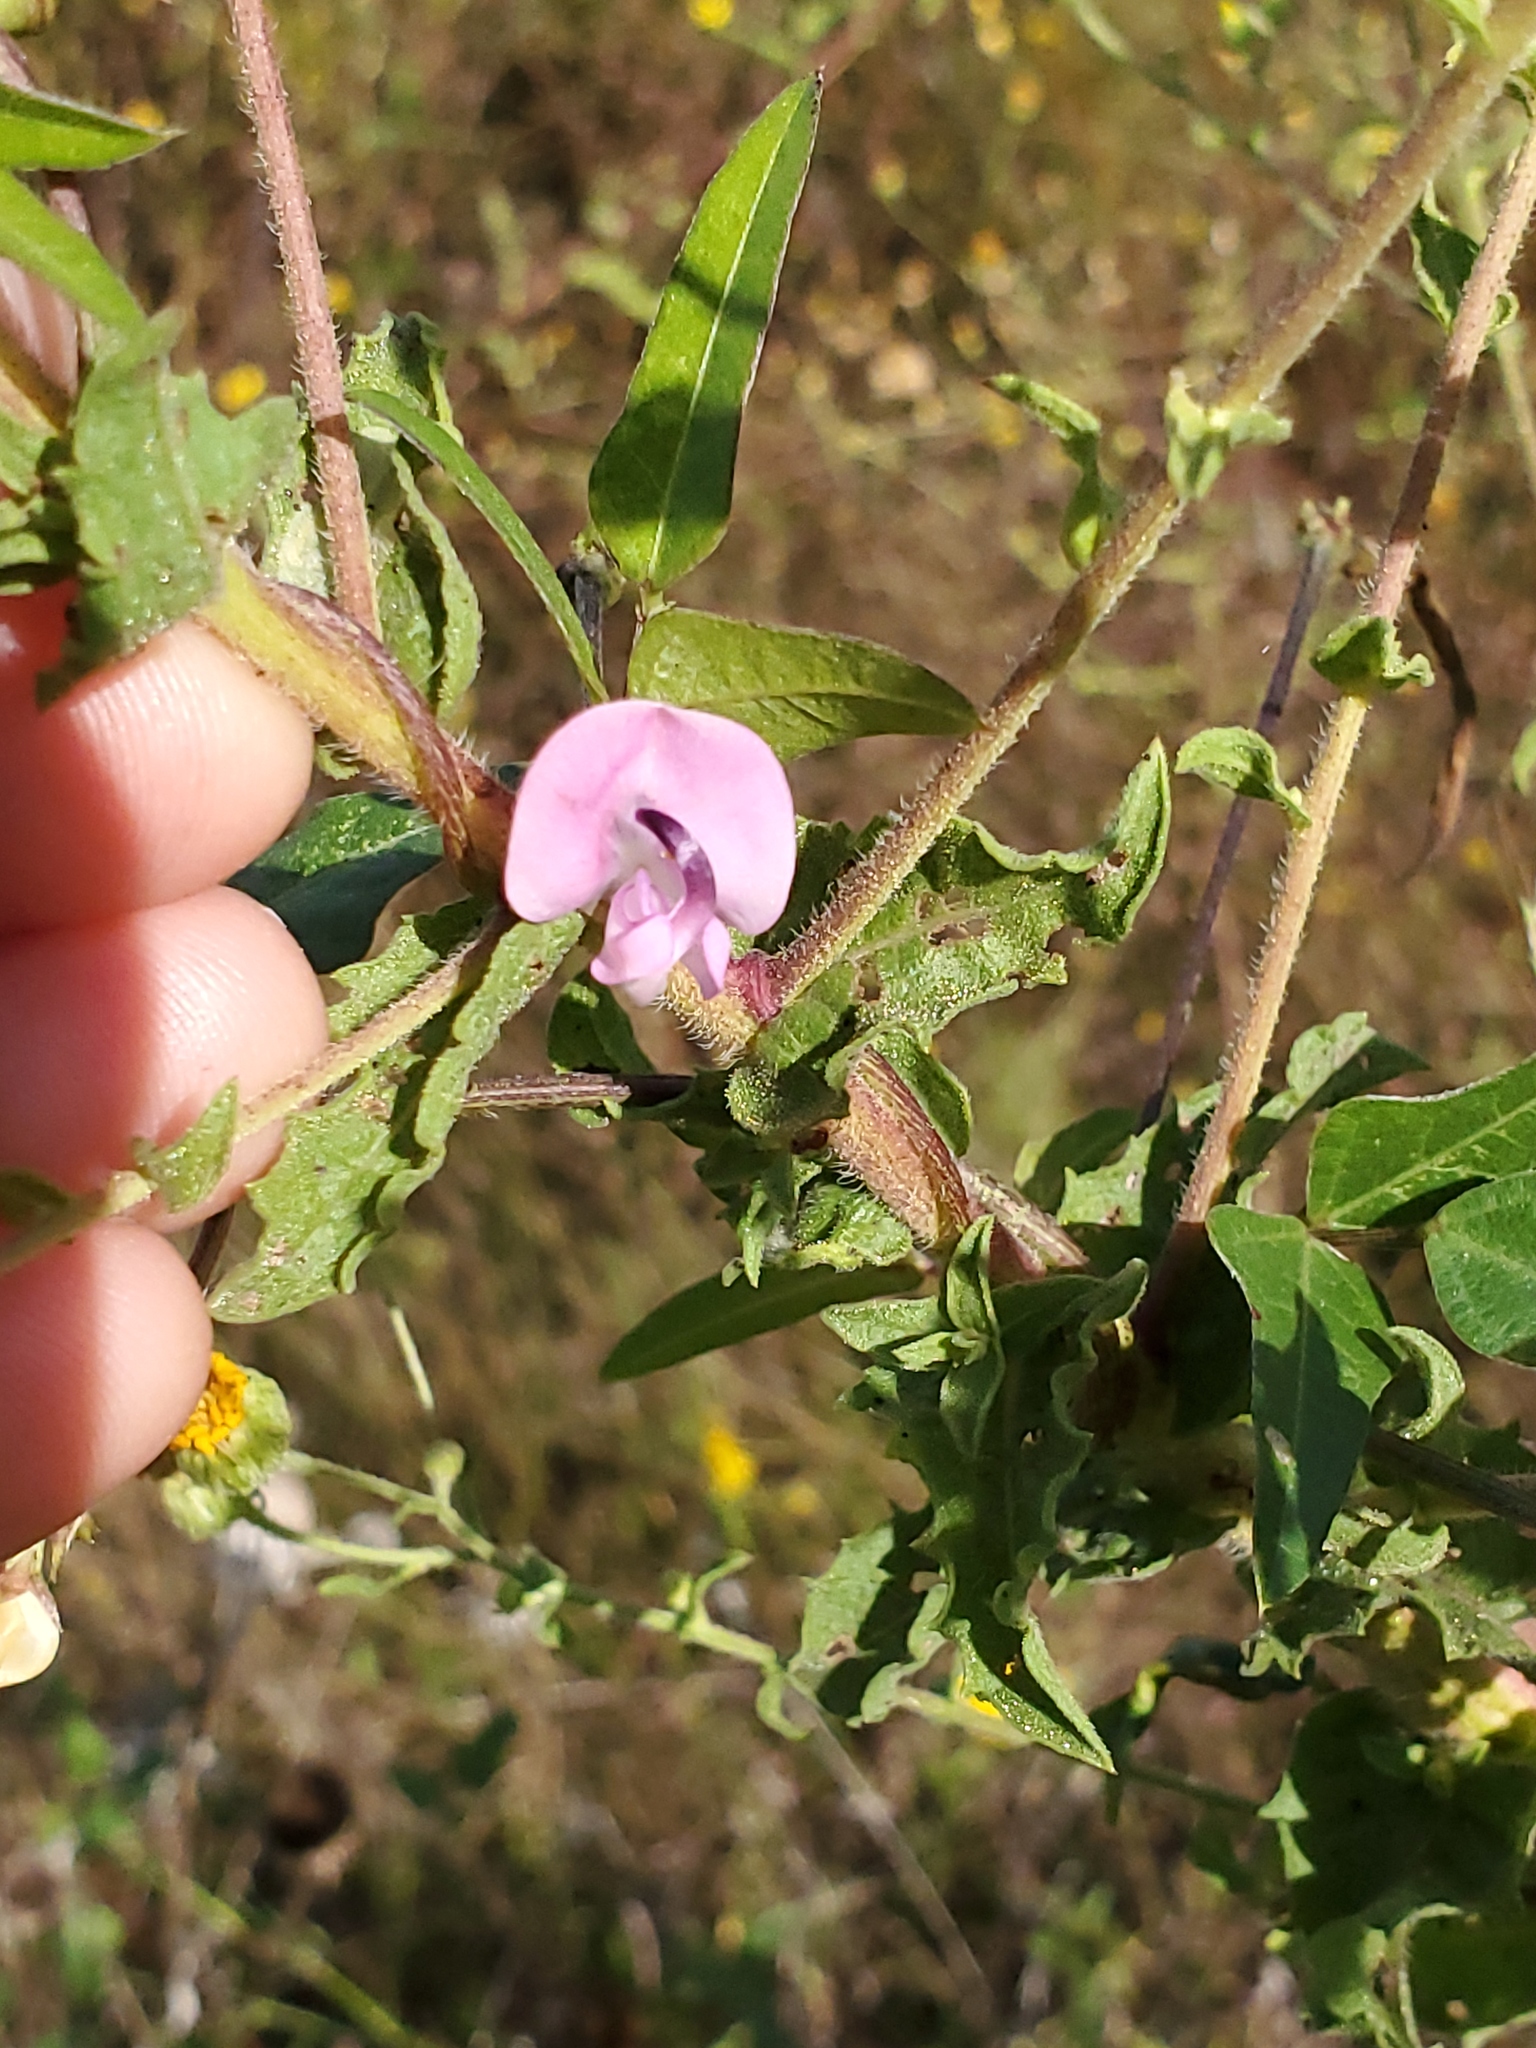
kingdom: Plantae
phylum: Tracheophyta
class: Magnoliopsida
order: Fabales
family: Fabaceae
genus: Strophostyles
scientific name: Strophostyles helvola
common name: Trailing wild bean
